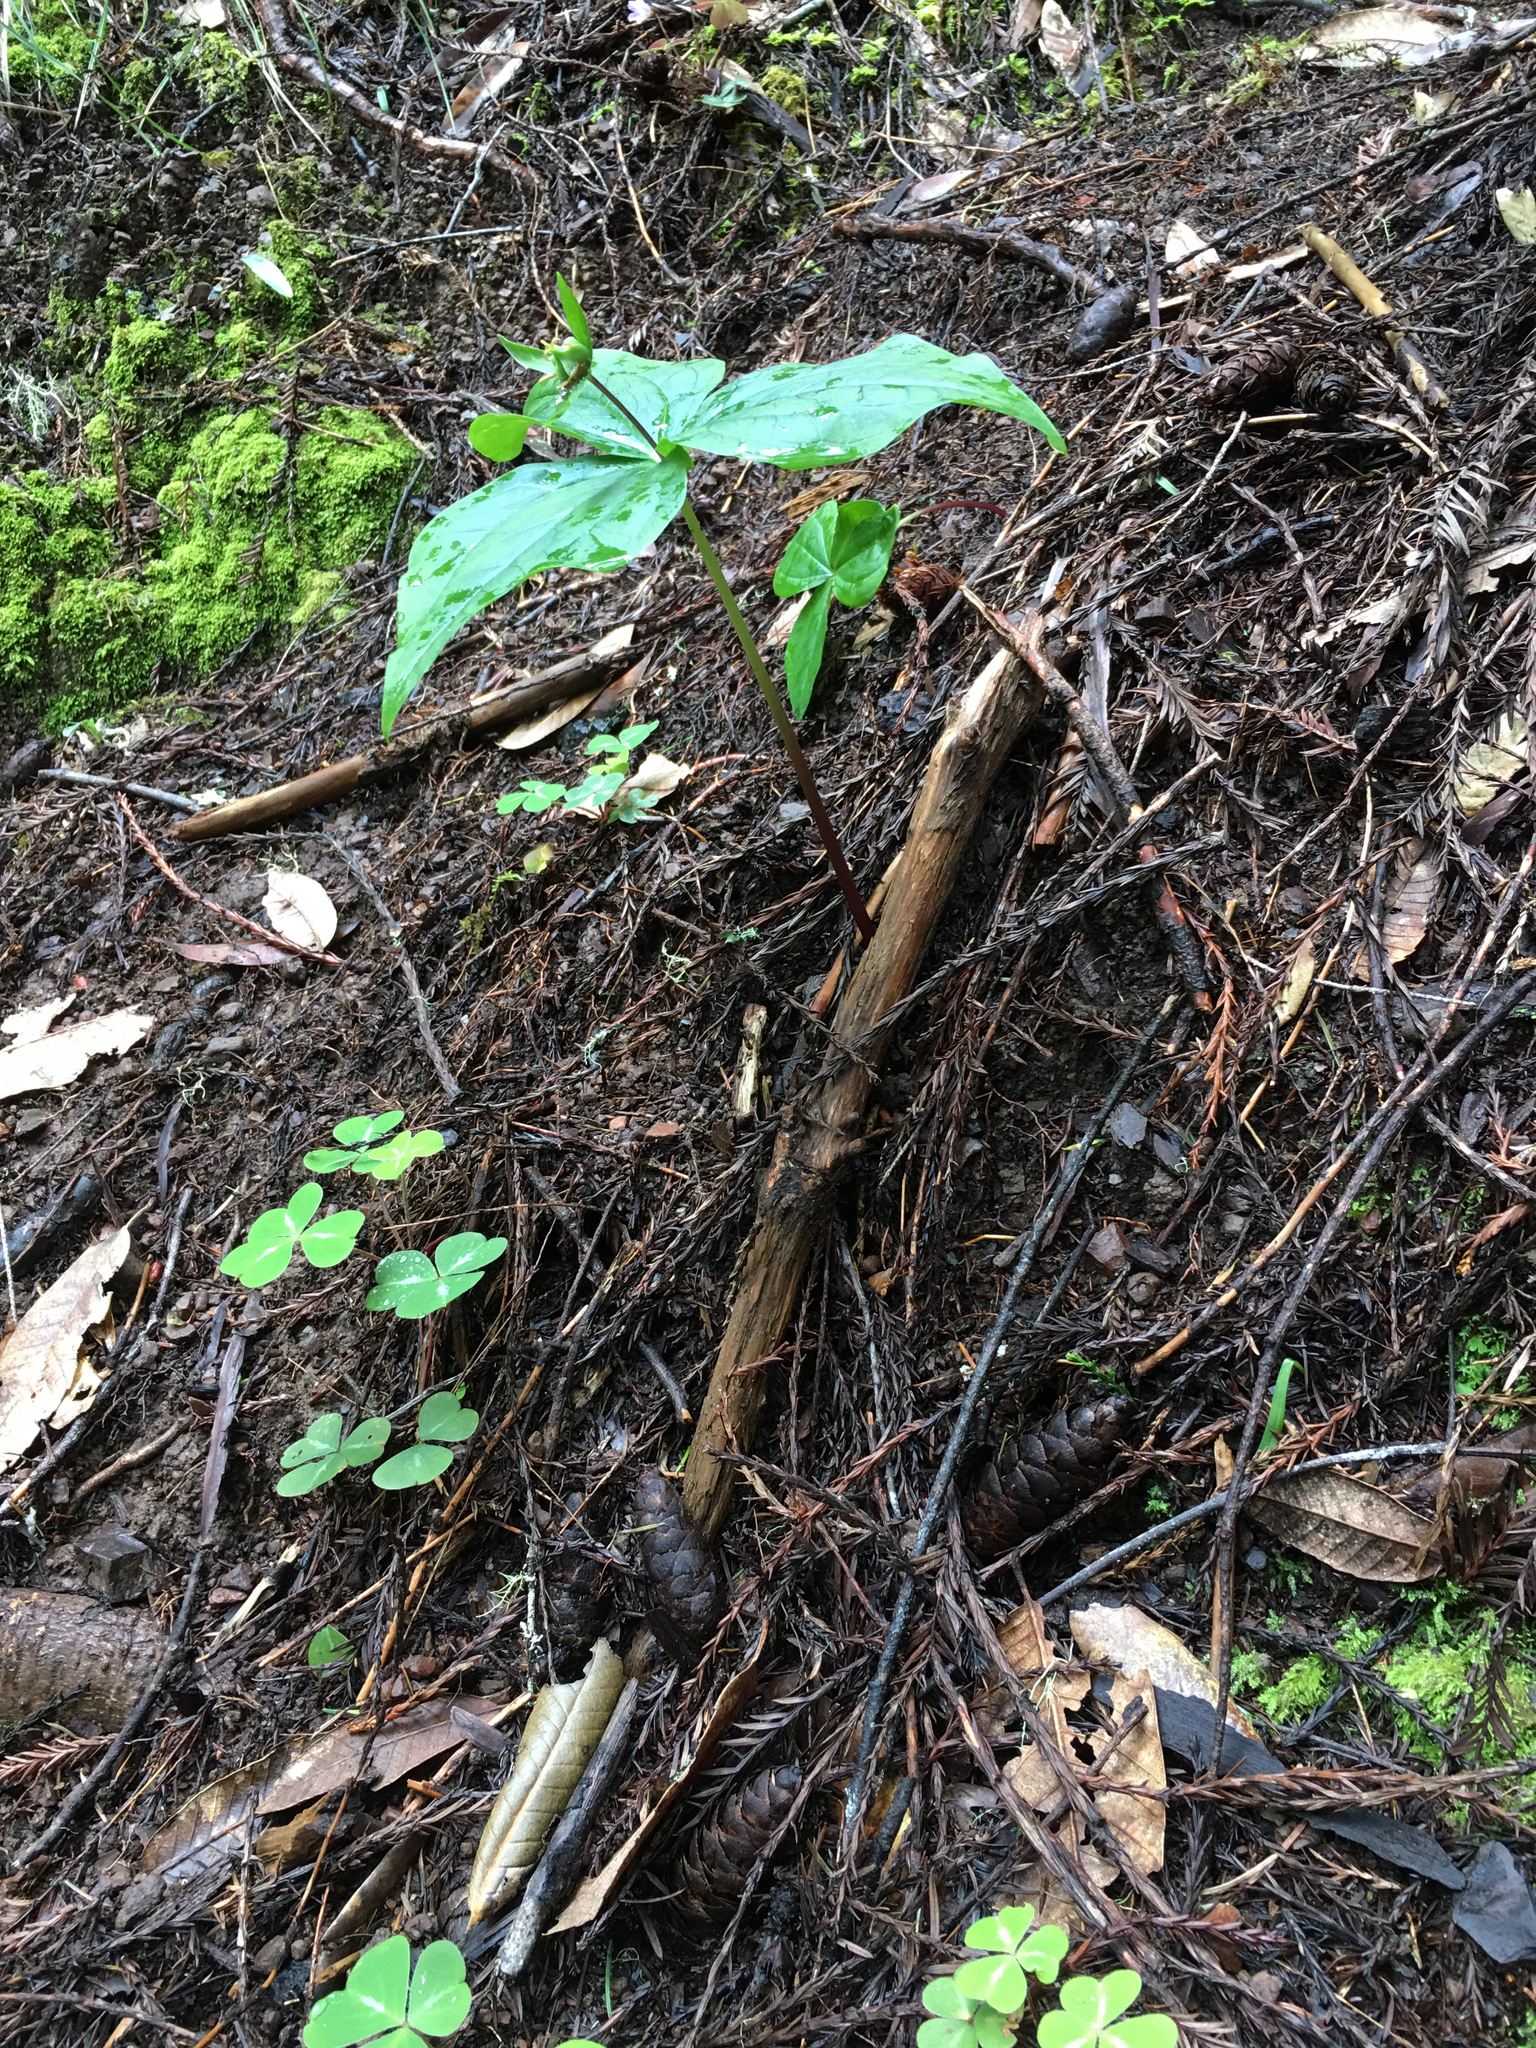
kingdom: Plantae
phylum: Tracheophyta
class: Liliopsida
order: Liliales
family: Melanthiaceae
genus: Trillium
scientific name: Trillium ovatum
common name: Pacific trillium
